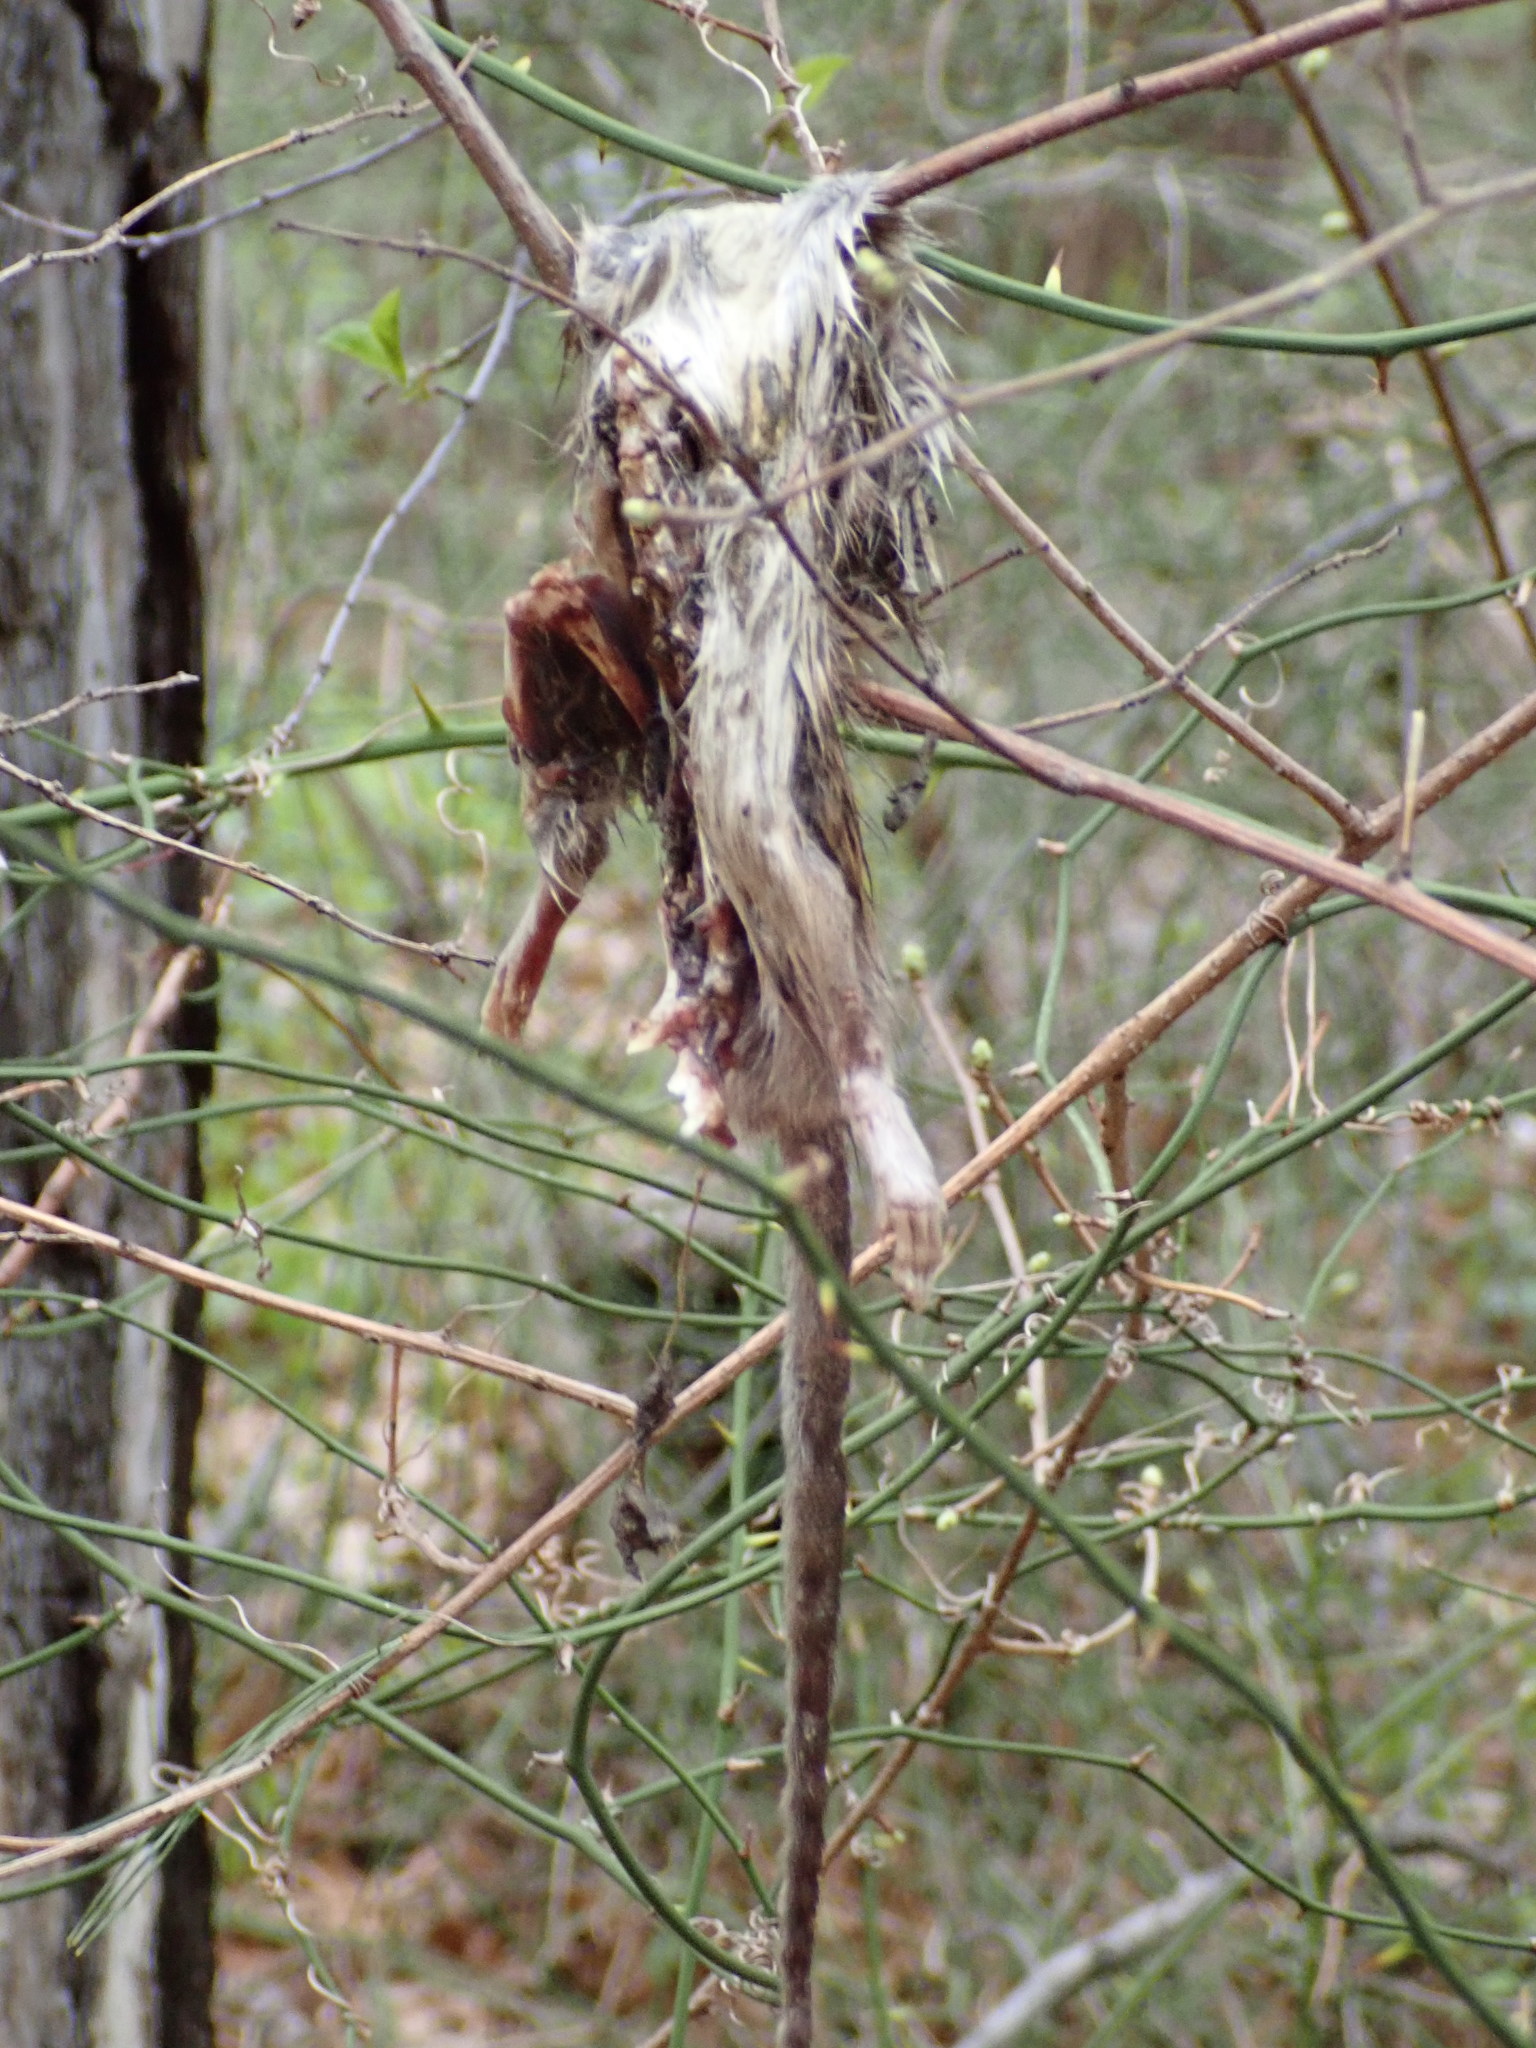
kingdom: Animalia
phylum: Chordata
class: Mammalia
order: Rodentia
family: Muridae
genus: Rattus
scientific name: Rattus norvegicus
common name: Brown rat
